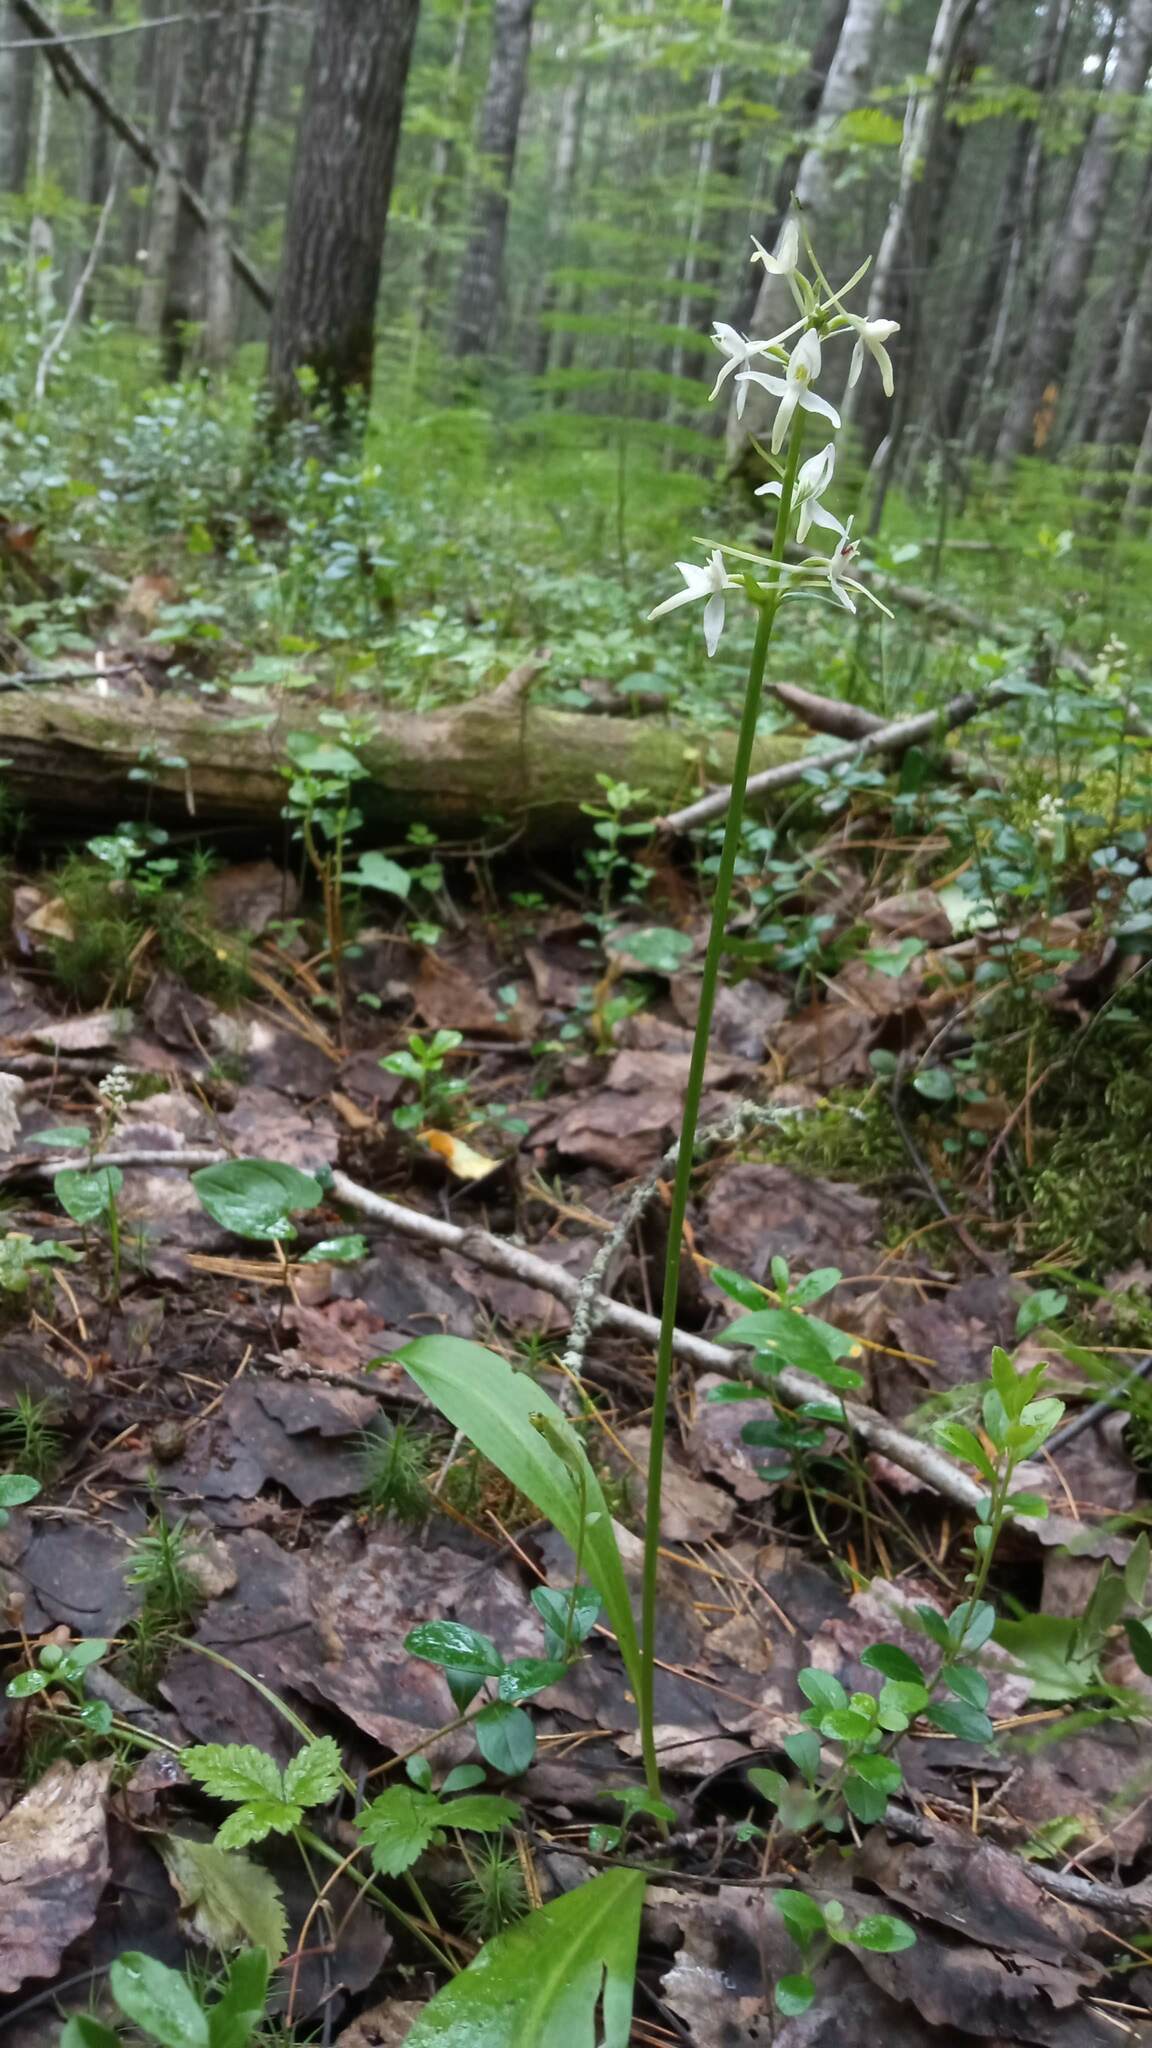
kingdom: Plantae
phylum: Tracheophyta
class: Liliopsida
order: Asparagales
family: Orchidaceae
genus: Platanthera
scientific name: Platanthera bifolia
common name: Lesser butterfly-orchid
